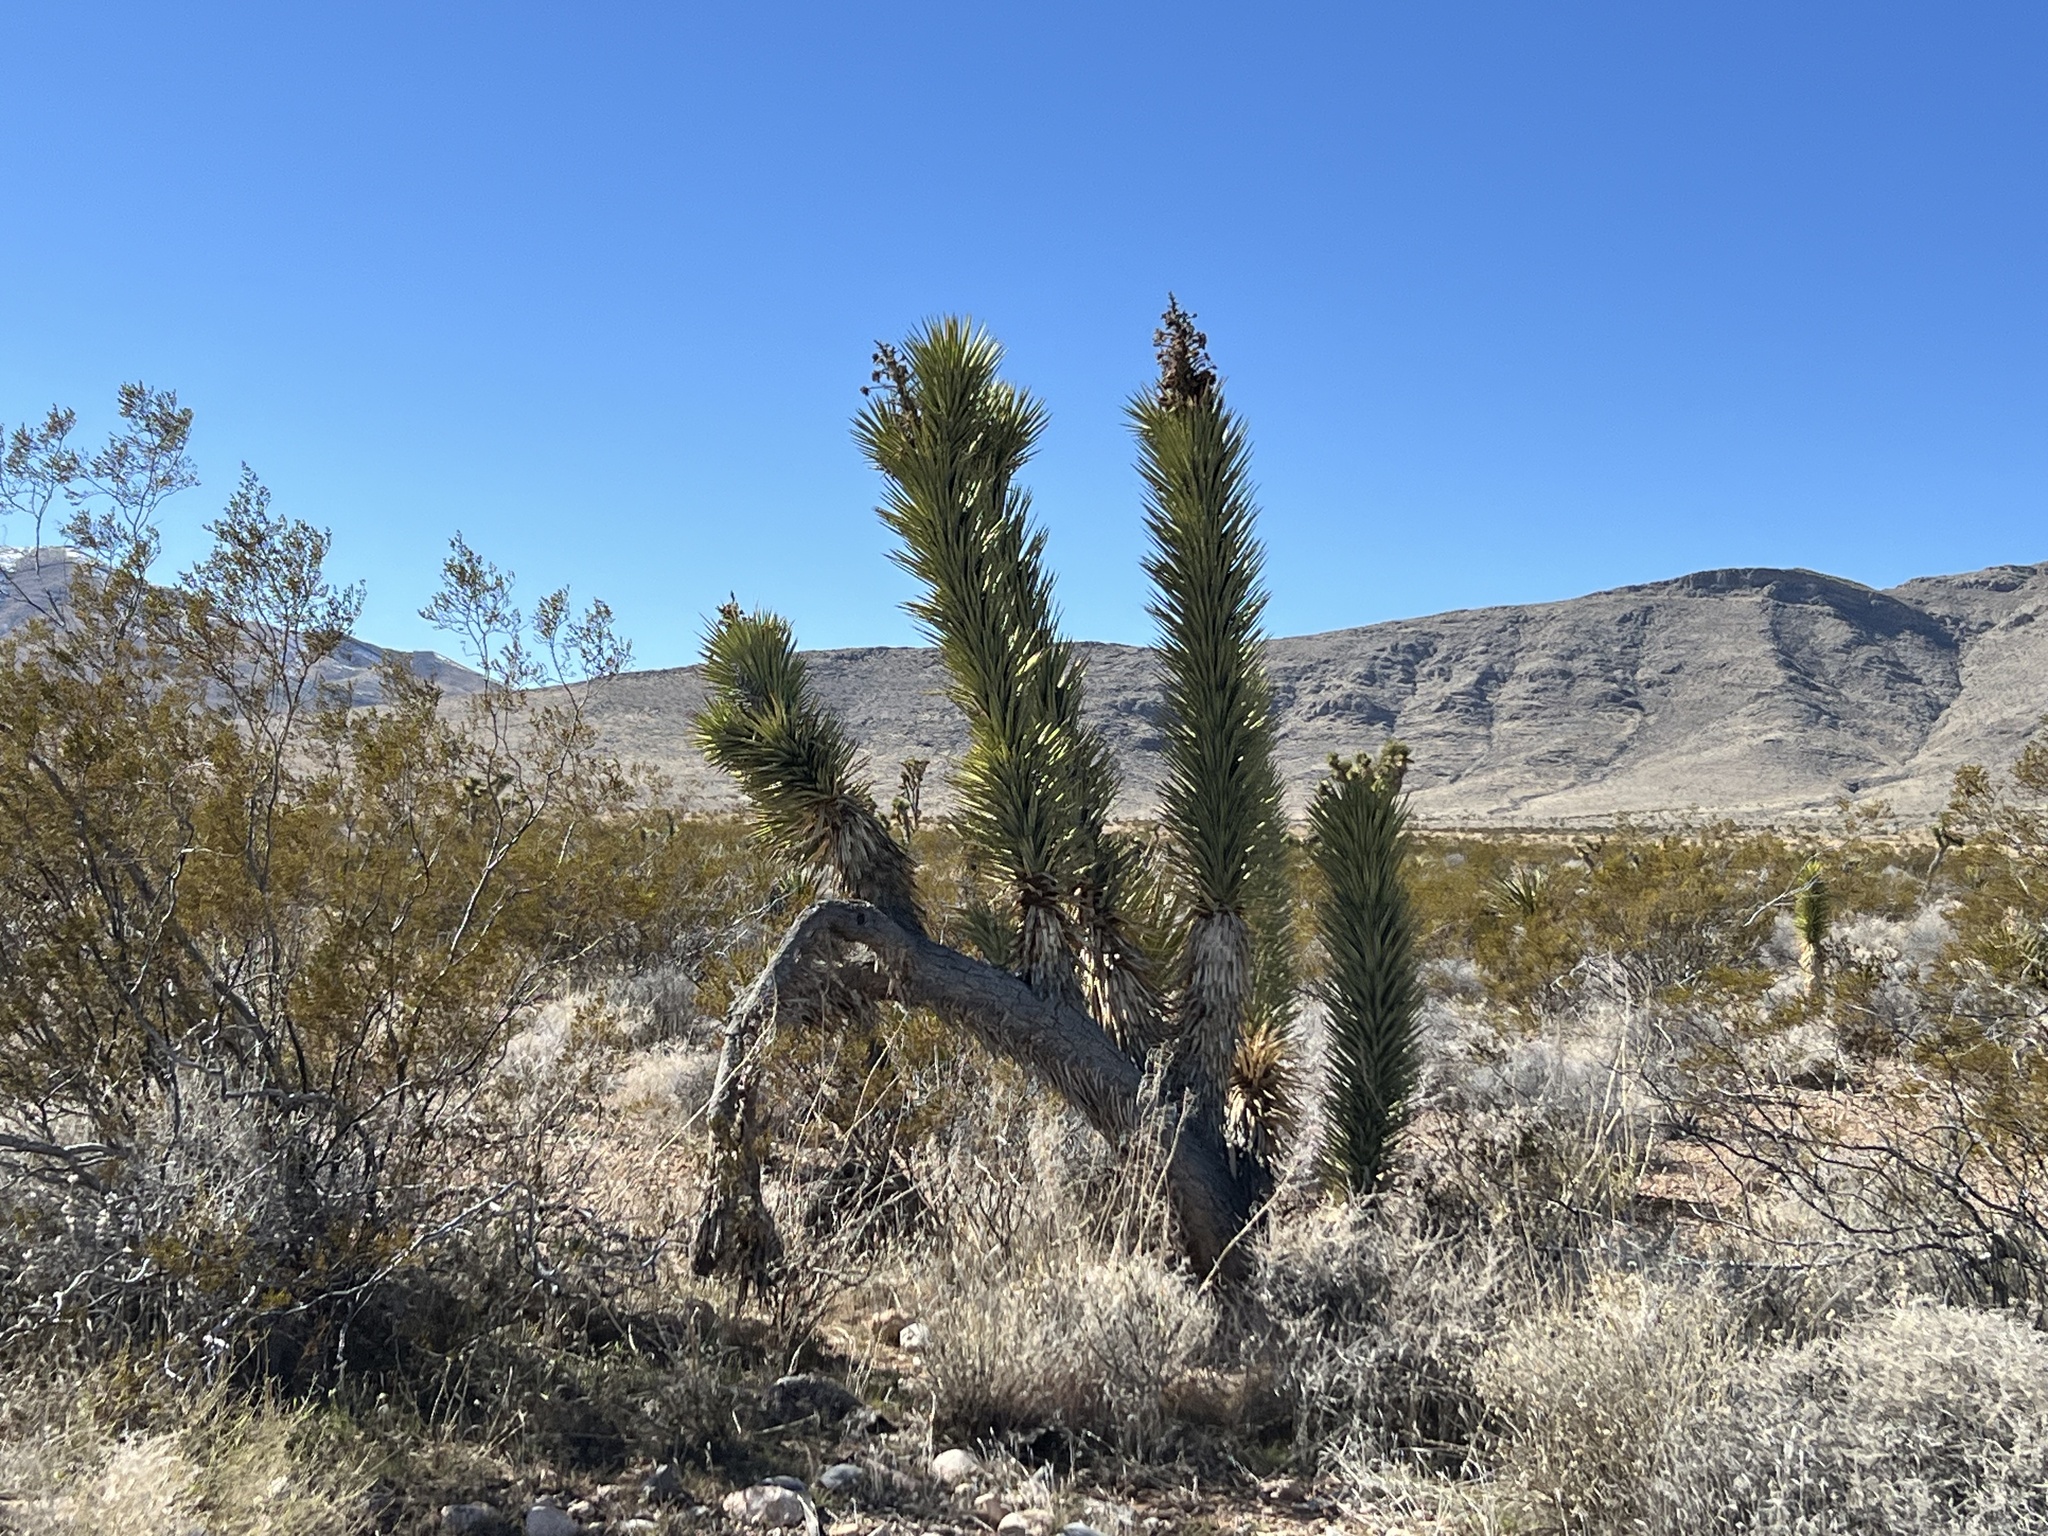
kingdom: Plantae
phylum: Tracheophyta
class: Liliopsida
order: Asparagales
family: Asparagaceae
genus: Yucca
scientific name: Yucca brevifolia
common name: Joshua tree
